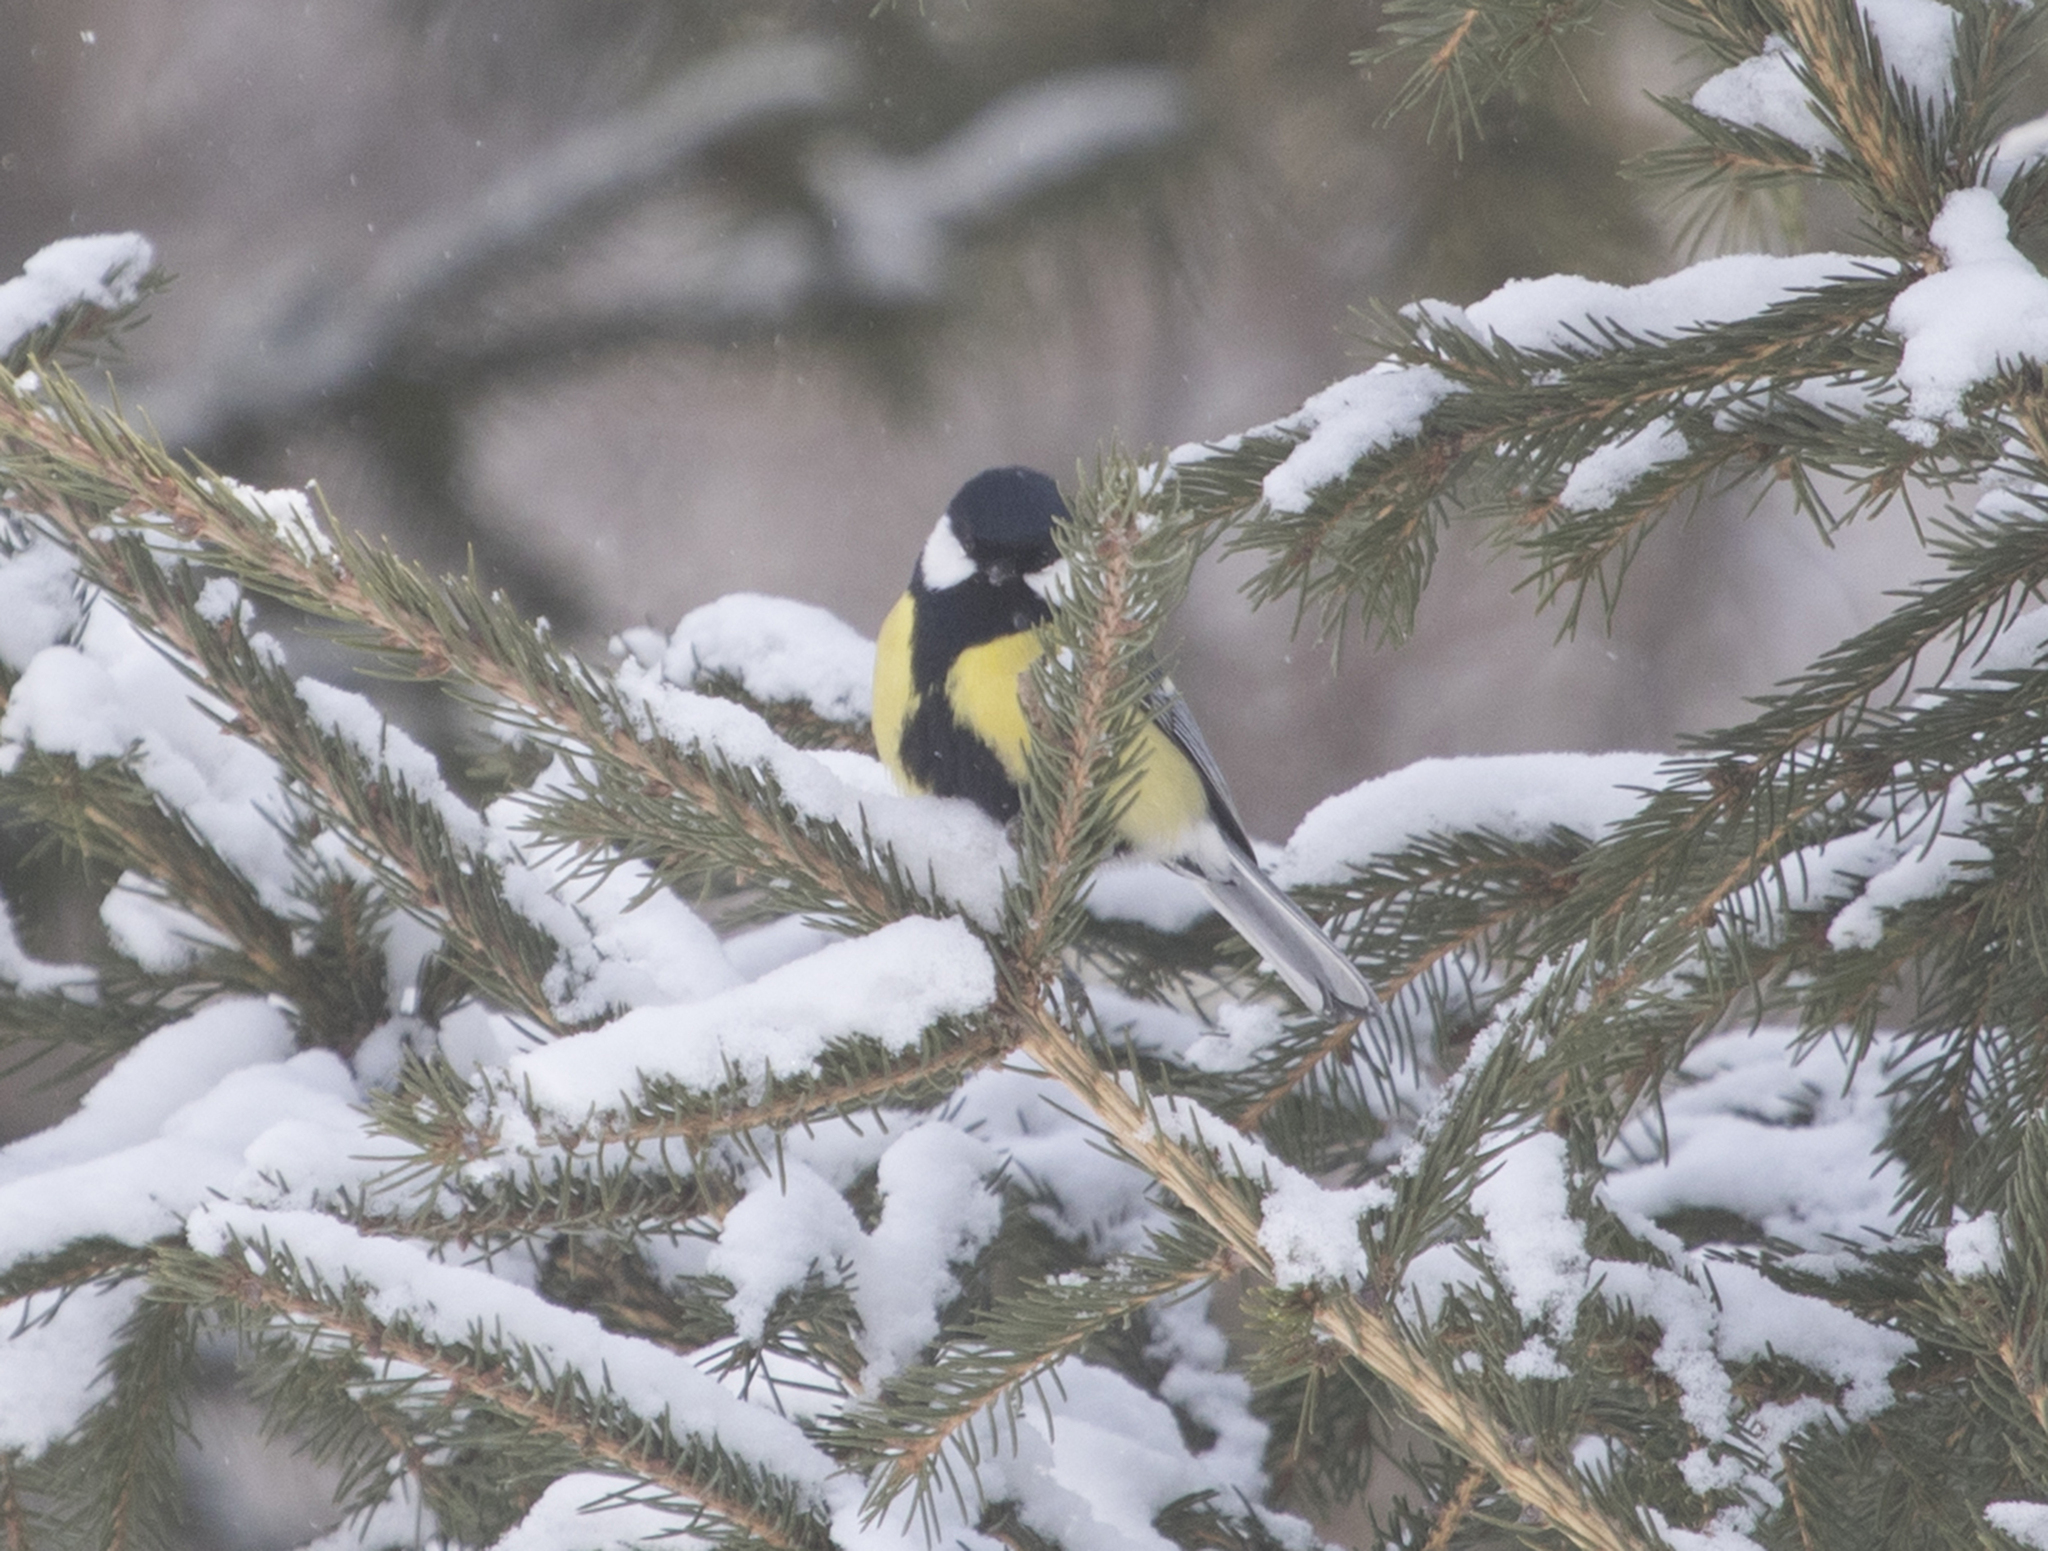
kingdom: Animalia
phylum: Chordata
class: Aves
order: Passeriformes
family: Paridae
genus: Parus
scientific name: Parus major
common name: Great tit
